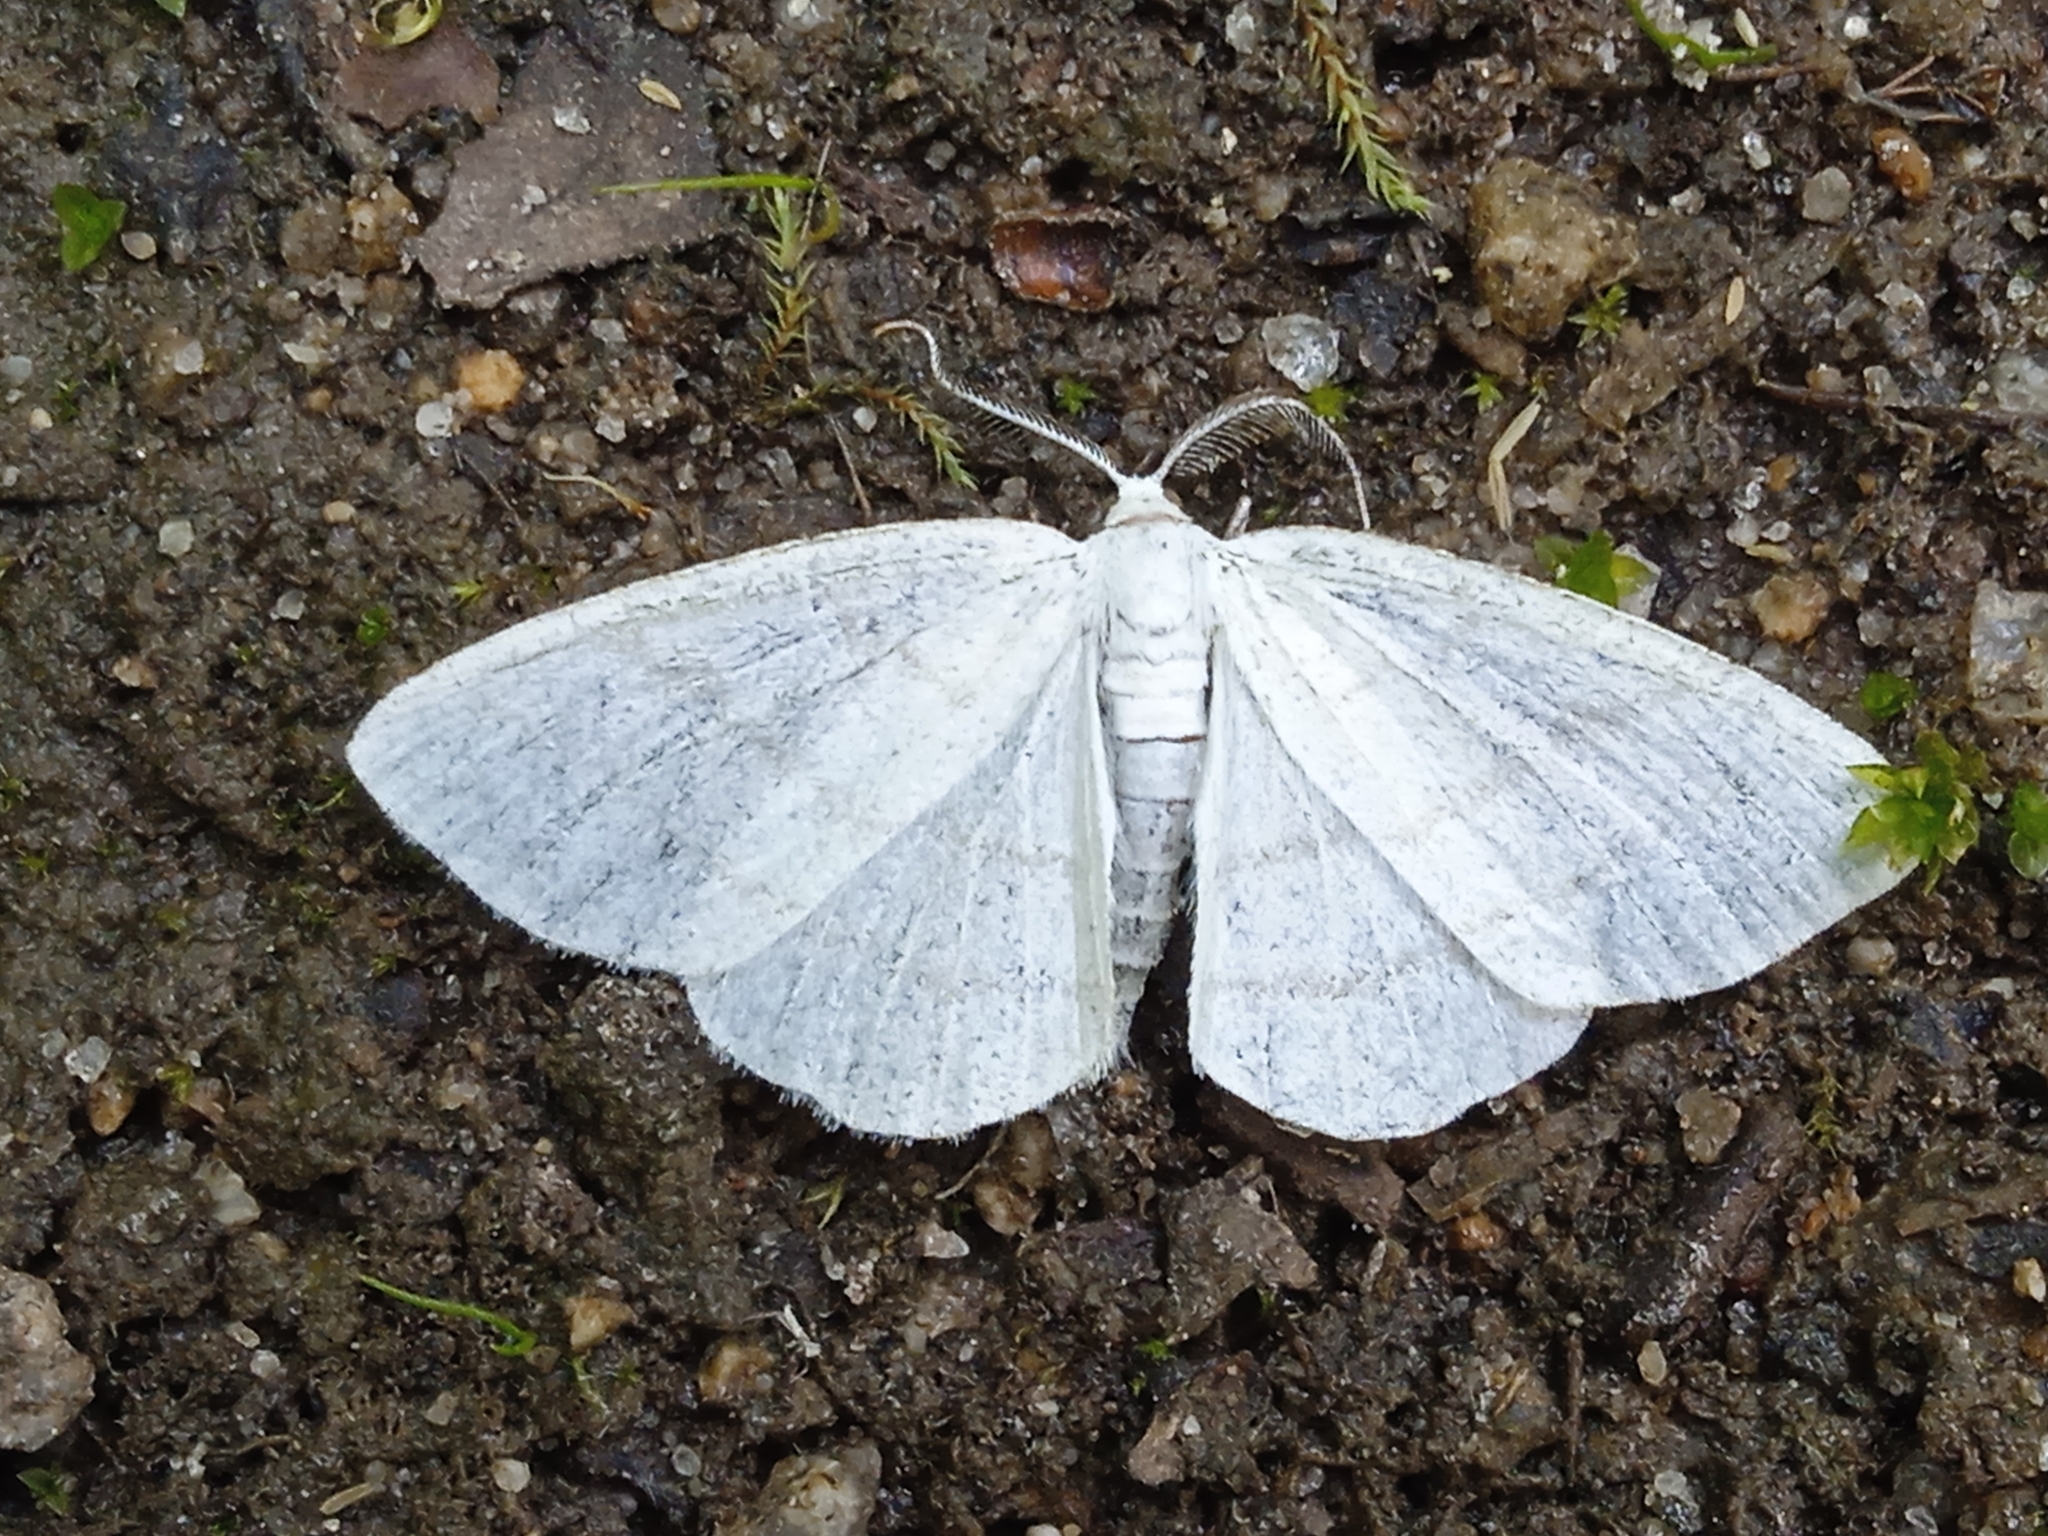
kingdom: Animalia
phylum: Arthropoda
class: Insecta
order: Lepidoptera
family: Geometridae
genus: Cabera
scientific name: Cabera pusaria
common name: Common white wave
